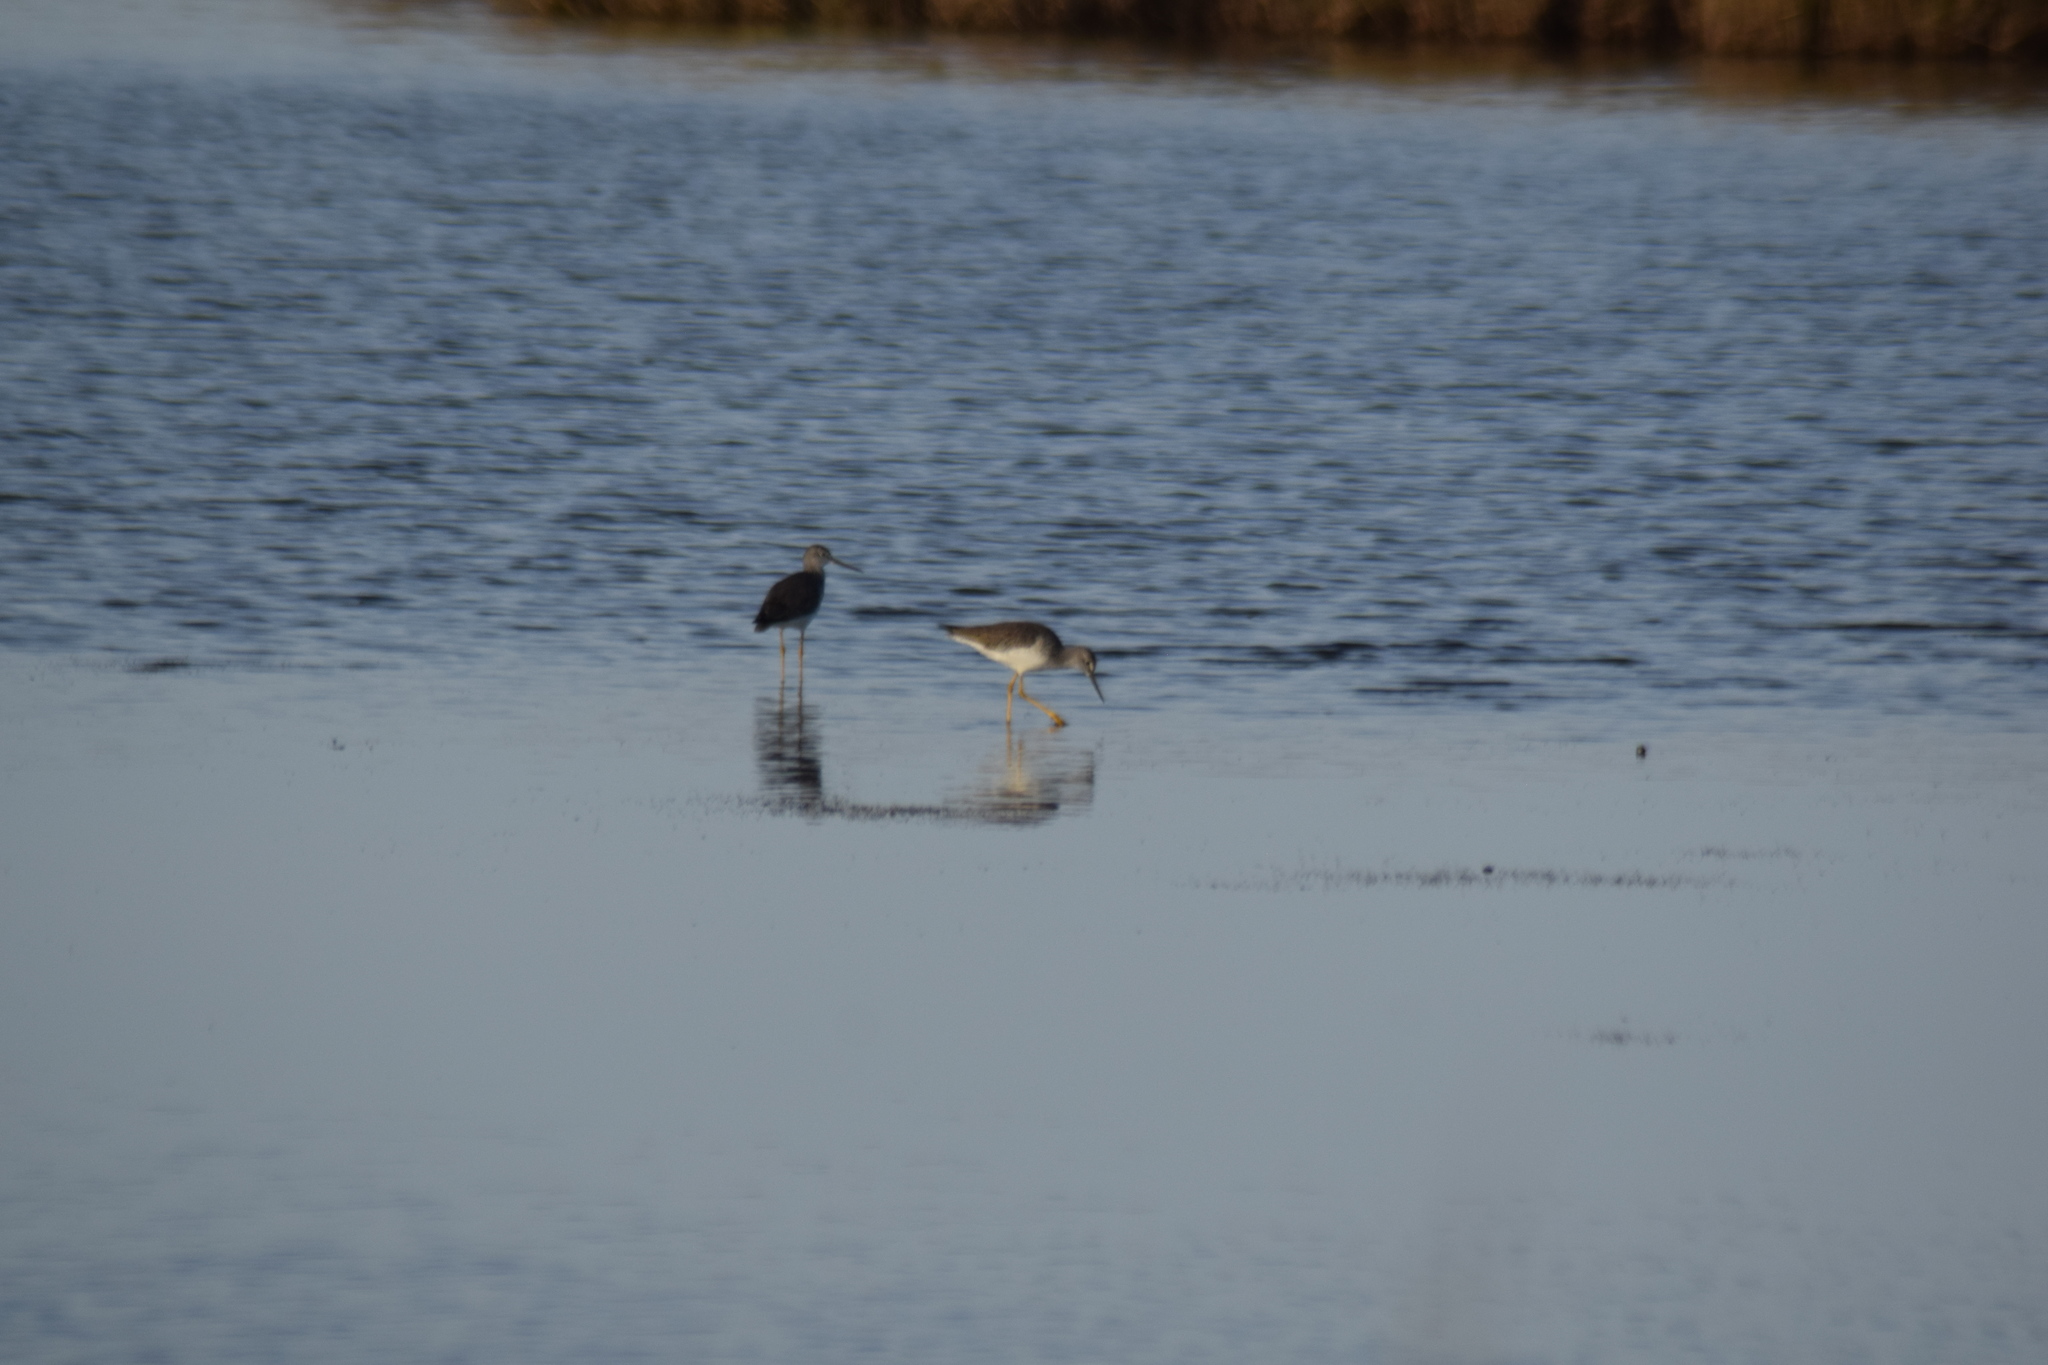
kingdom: Animalia
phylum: Chordata
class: Aves
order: Charadriiformes
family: Scolopacidae
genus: Tringa
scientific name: Tringa melanoleuca
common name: Greater yellowlegs
